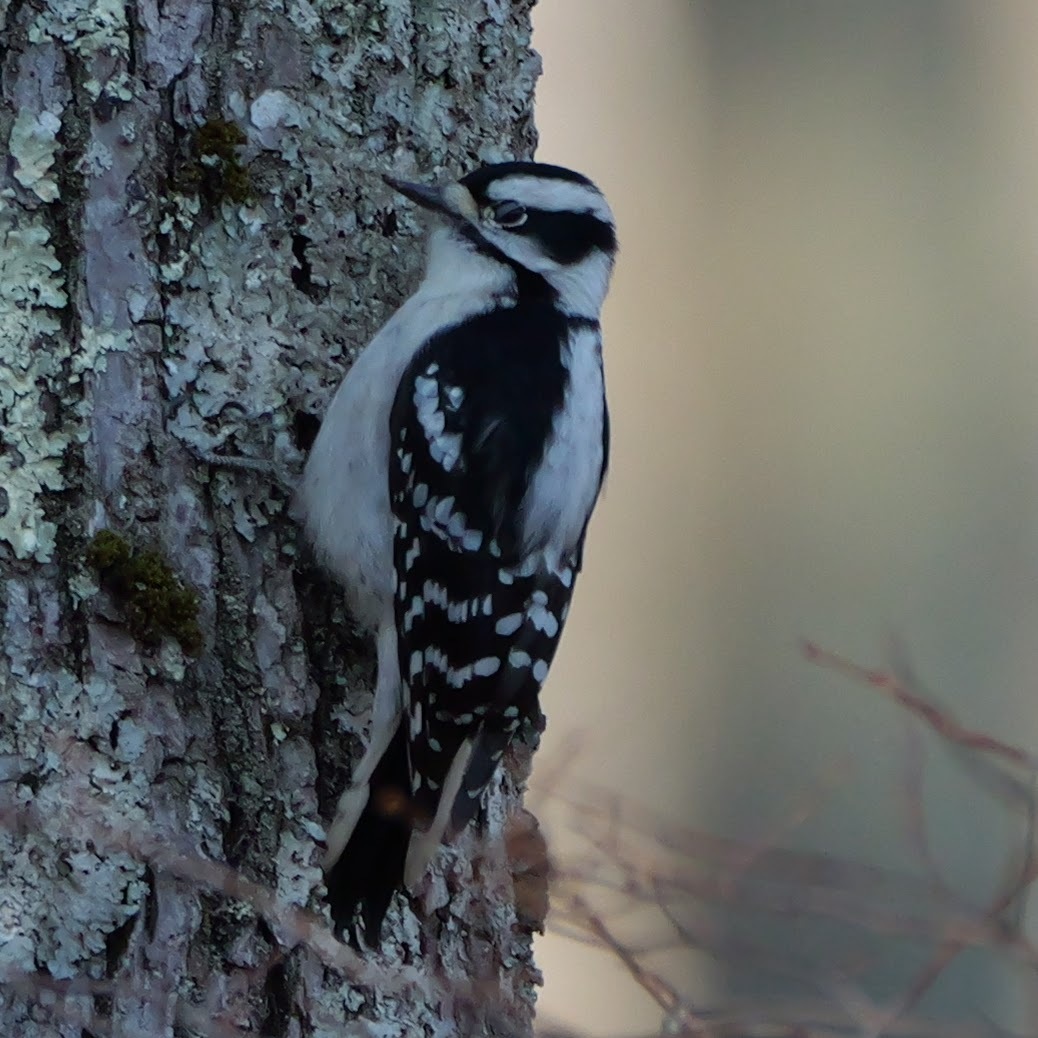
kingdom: Animalia
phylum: Chordata
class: Aves
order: Piciformes
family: Picidae
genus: Dryobates
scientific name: Dryobates pubescens
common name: Downy woodpecker
